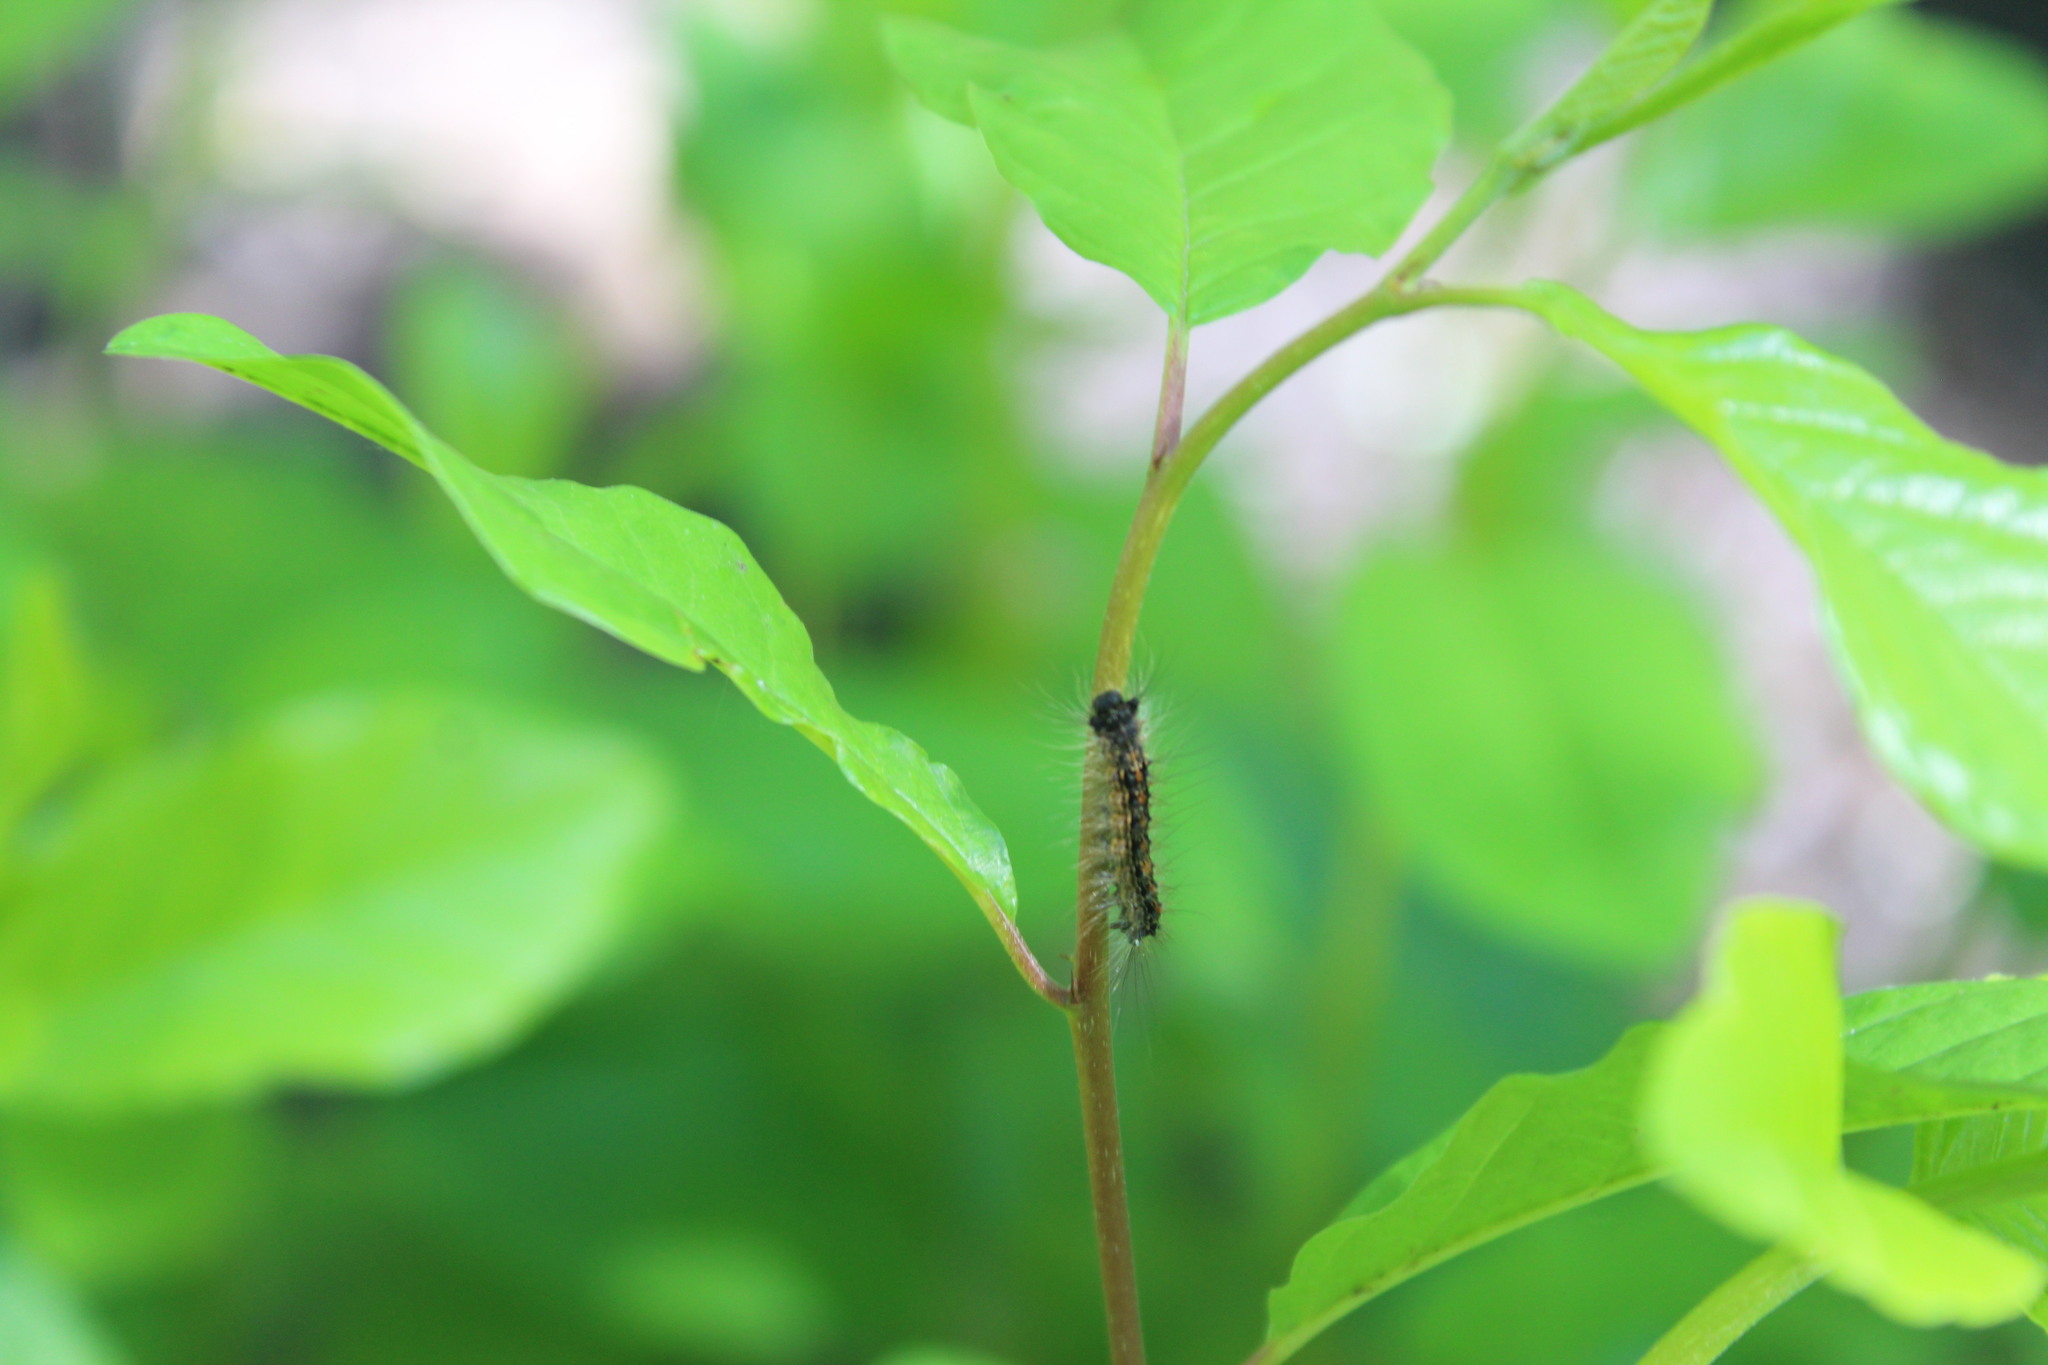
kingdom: Animalia
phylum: Arthropoda
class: Insecta
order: Lepidoptera
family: Erebidae
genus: Lymantria
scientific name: Lymantria dispar
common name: Gypsy moth
